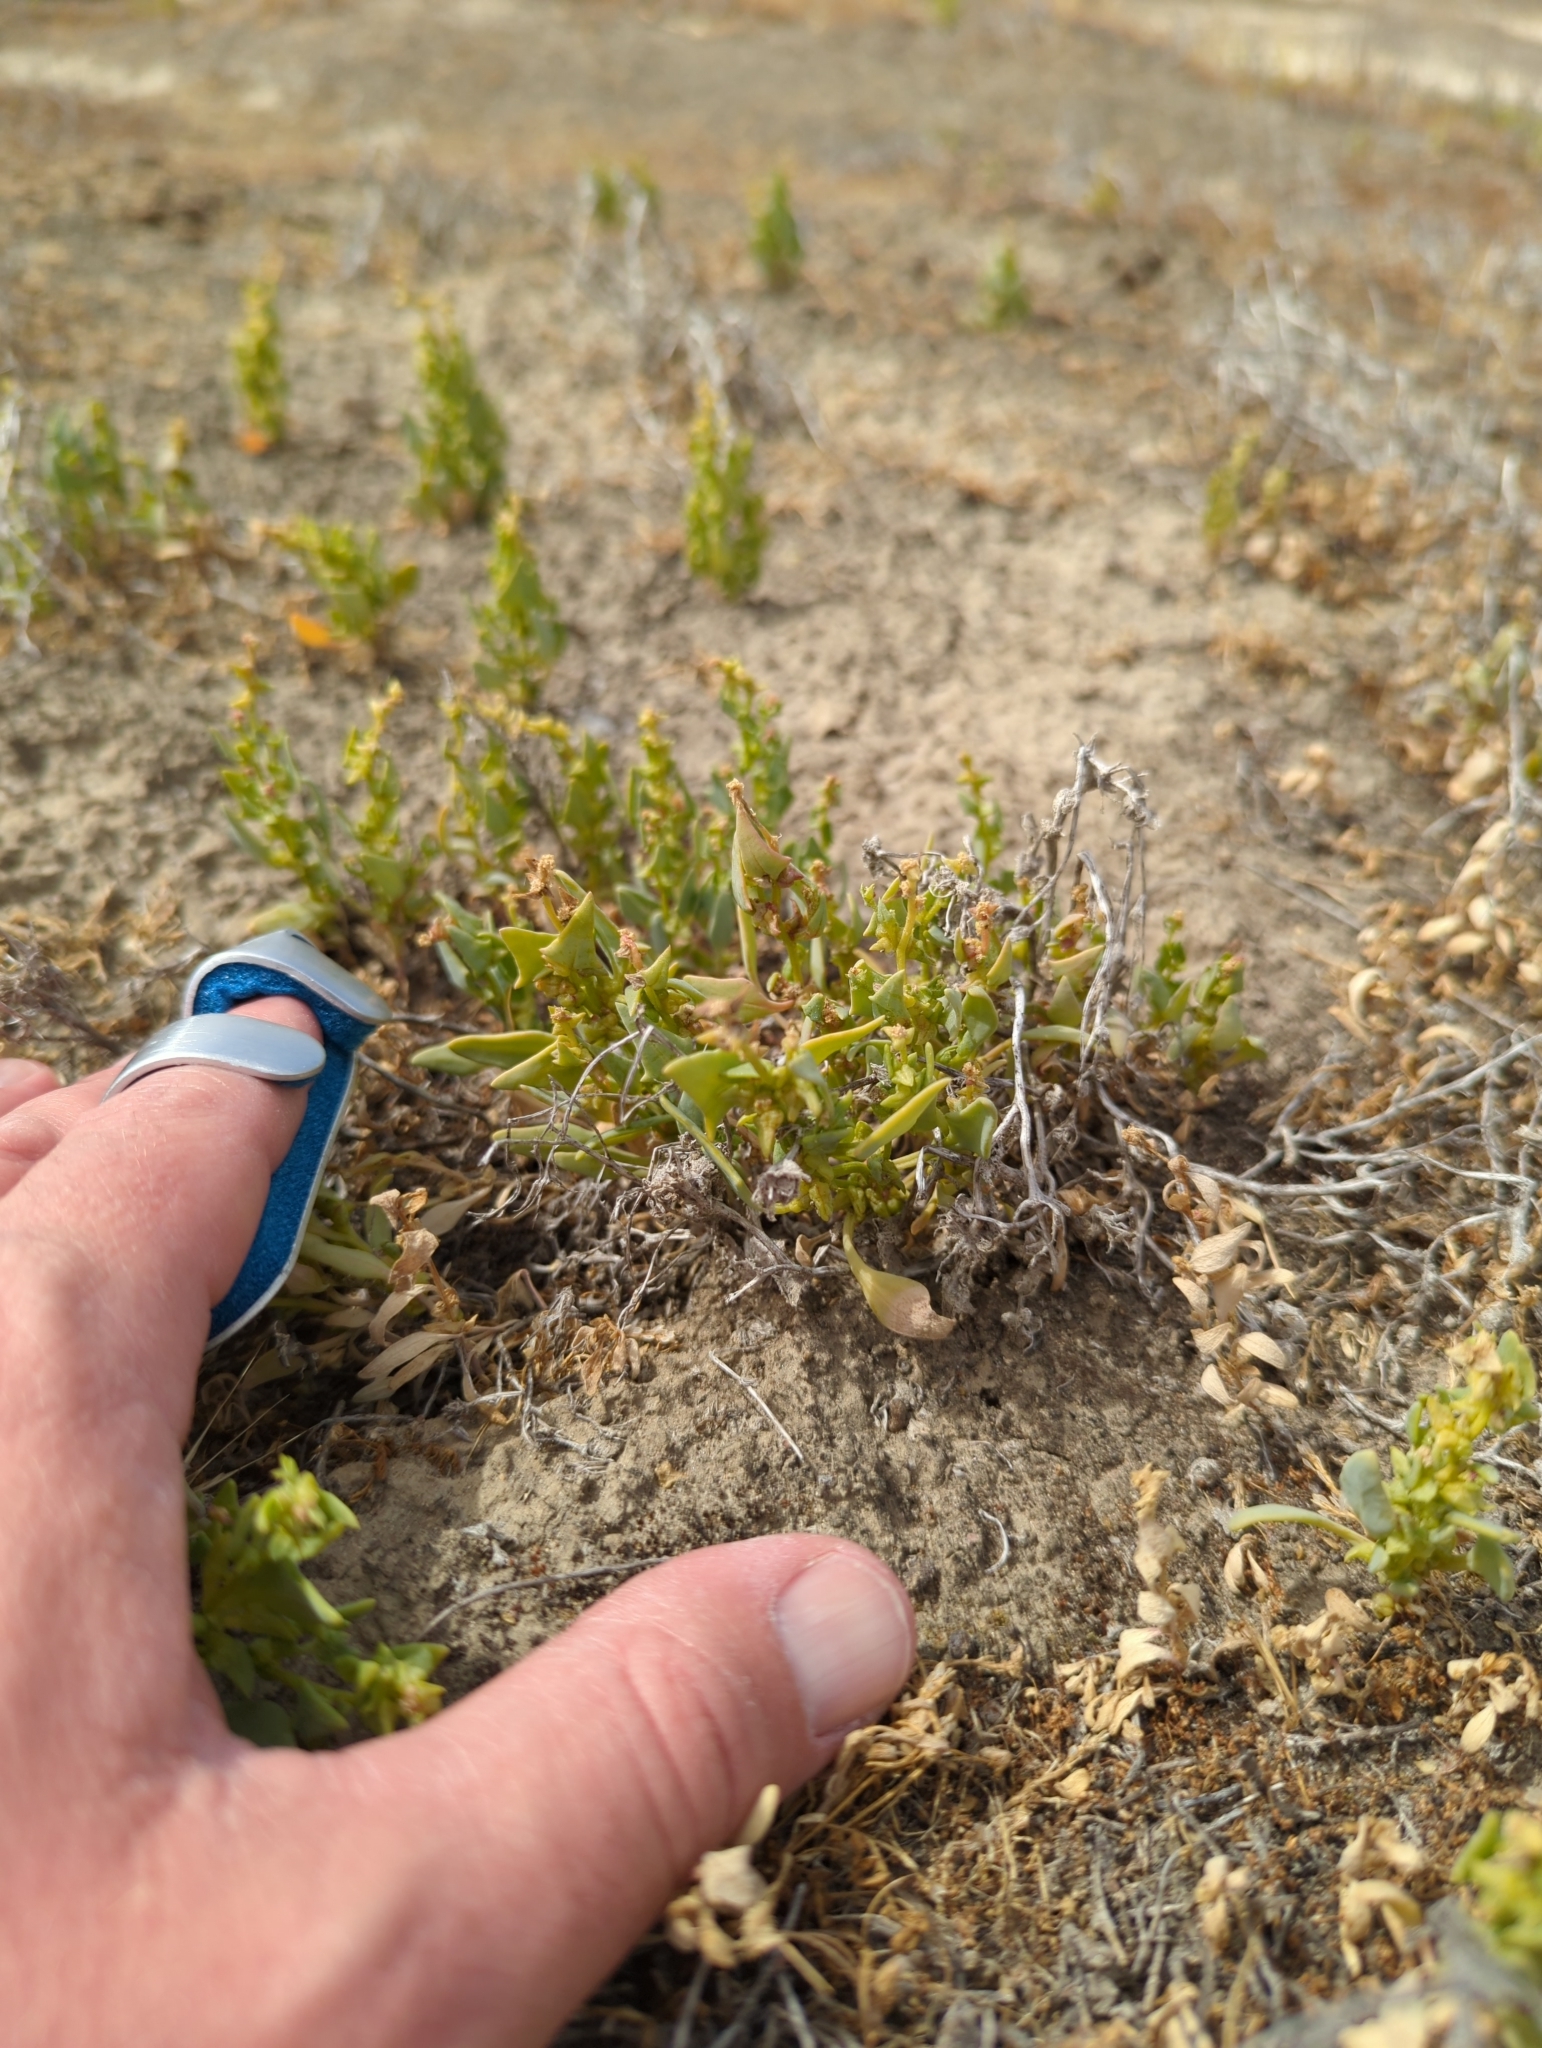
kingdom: Plantae
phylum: Tracheophyta
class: Magnoliopsida
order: Caryophyllales
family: Amaranthaceae
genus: Stutzia
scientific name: Stutzia covillei
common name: Coville's orach
